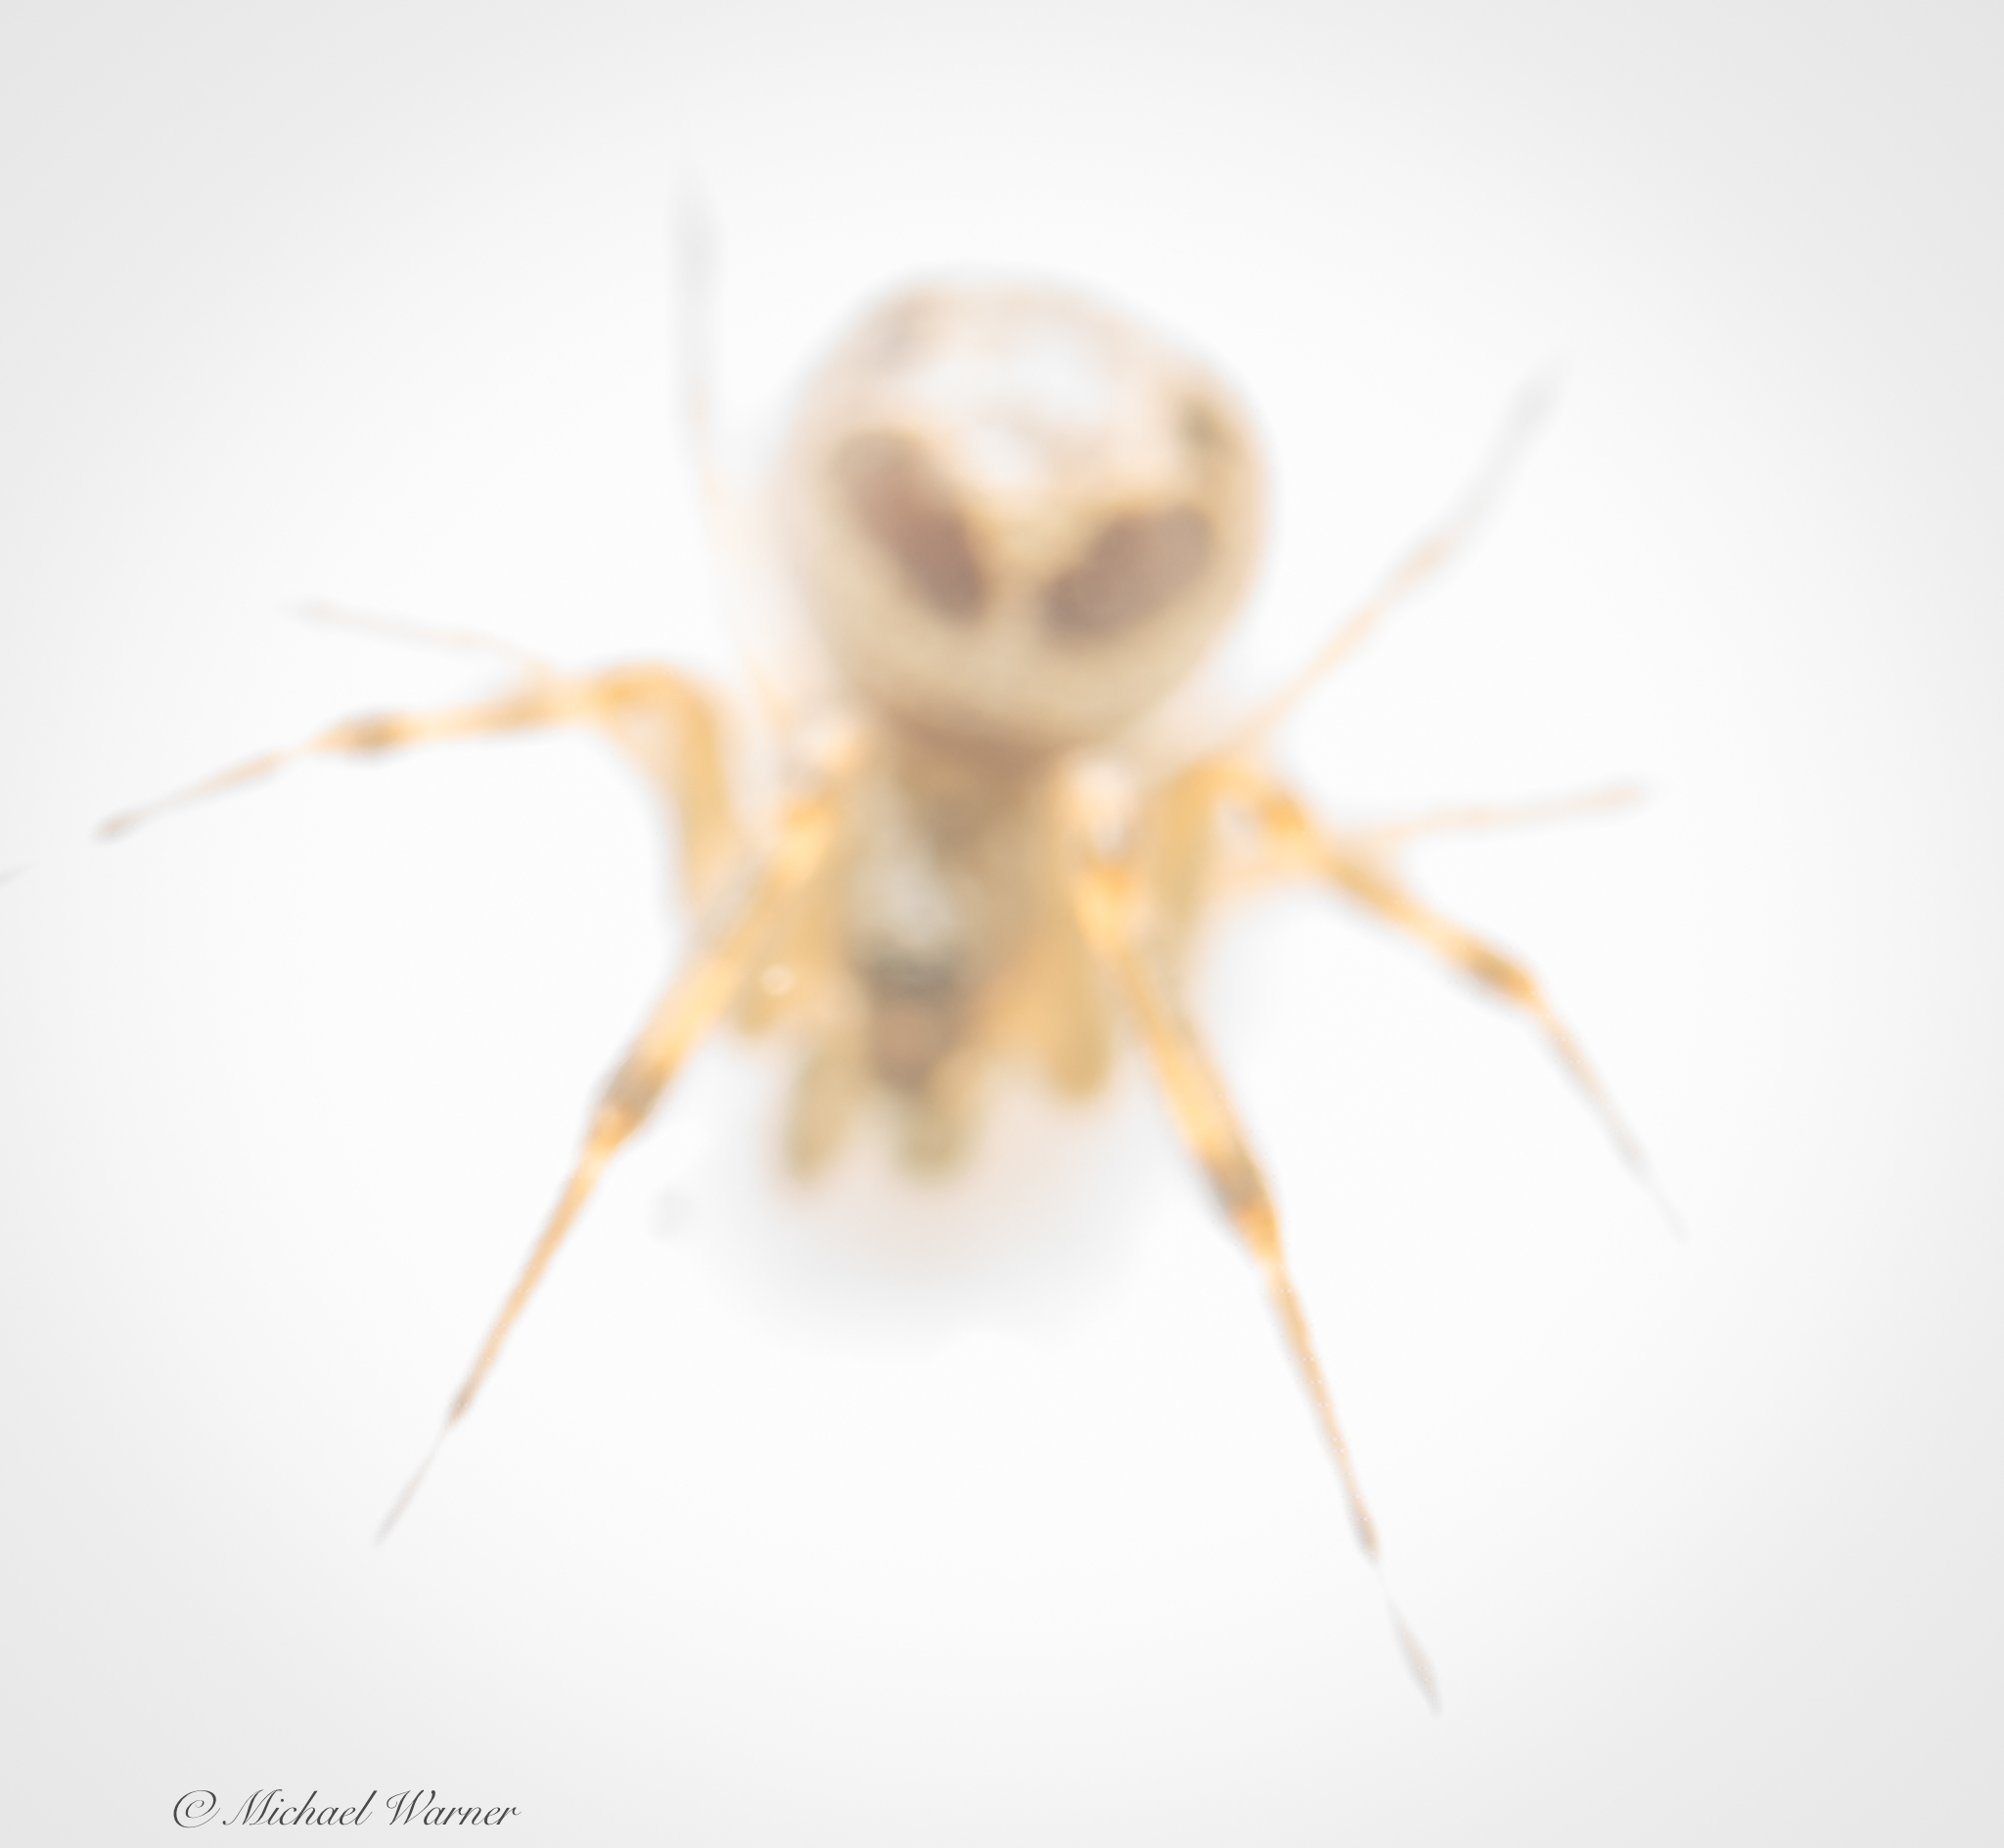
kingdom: Animalia
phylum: Arthropoda
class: Arachnida
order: Araneae
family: Theridiidae
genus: Steatoda
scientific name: Steatoda nobilis
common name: Cobweb weaver
